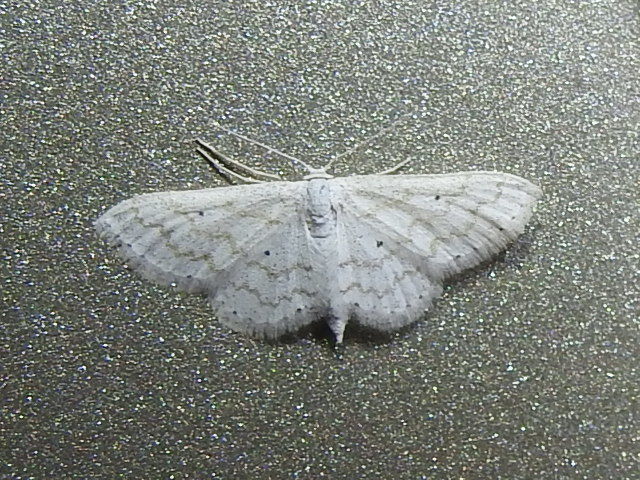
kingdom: Animalia
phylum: Arthropoda
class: Insecta
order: Lepidoptera
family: Geometridae
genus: Lobocleta
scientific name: Lobocleta peralbata
